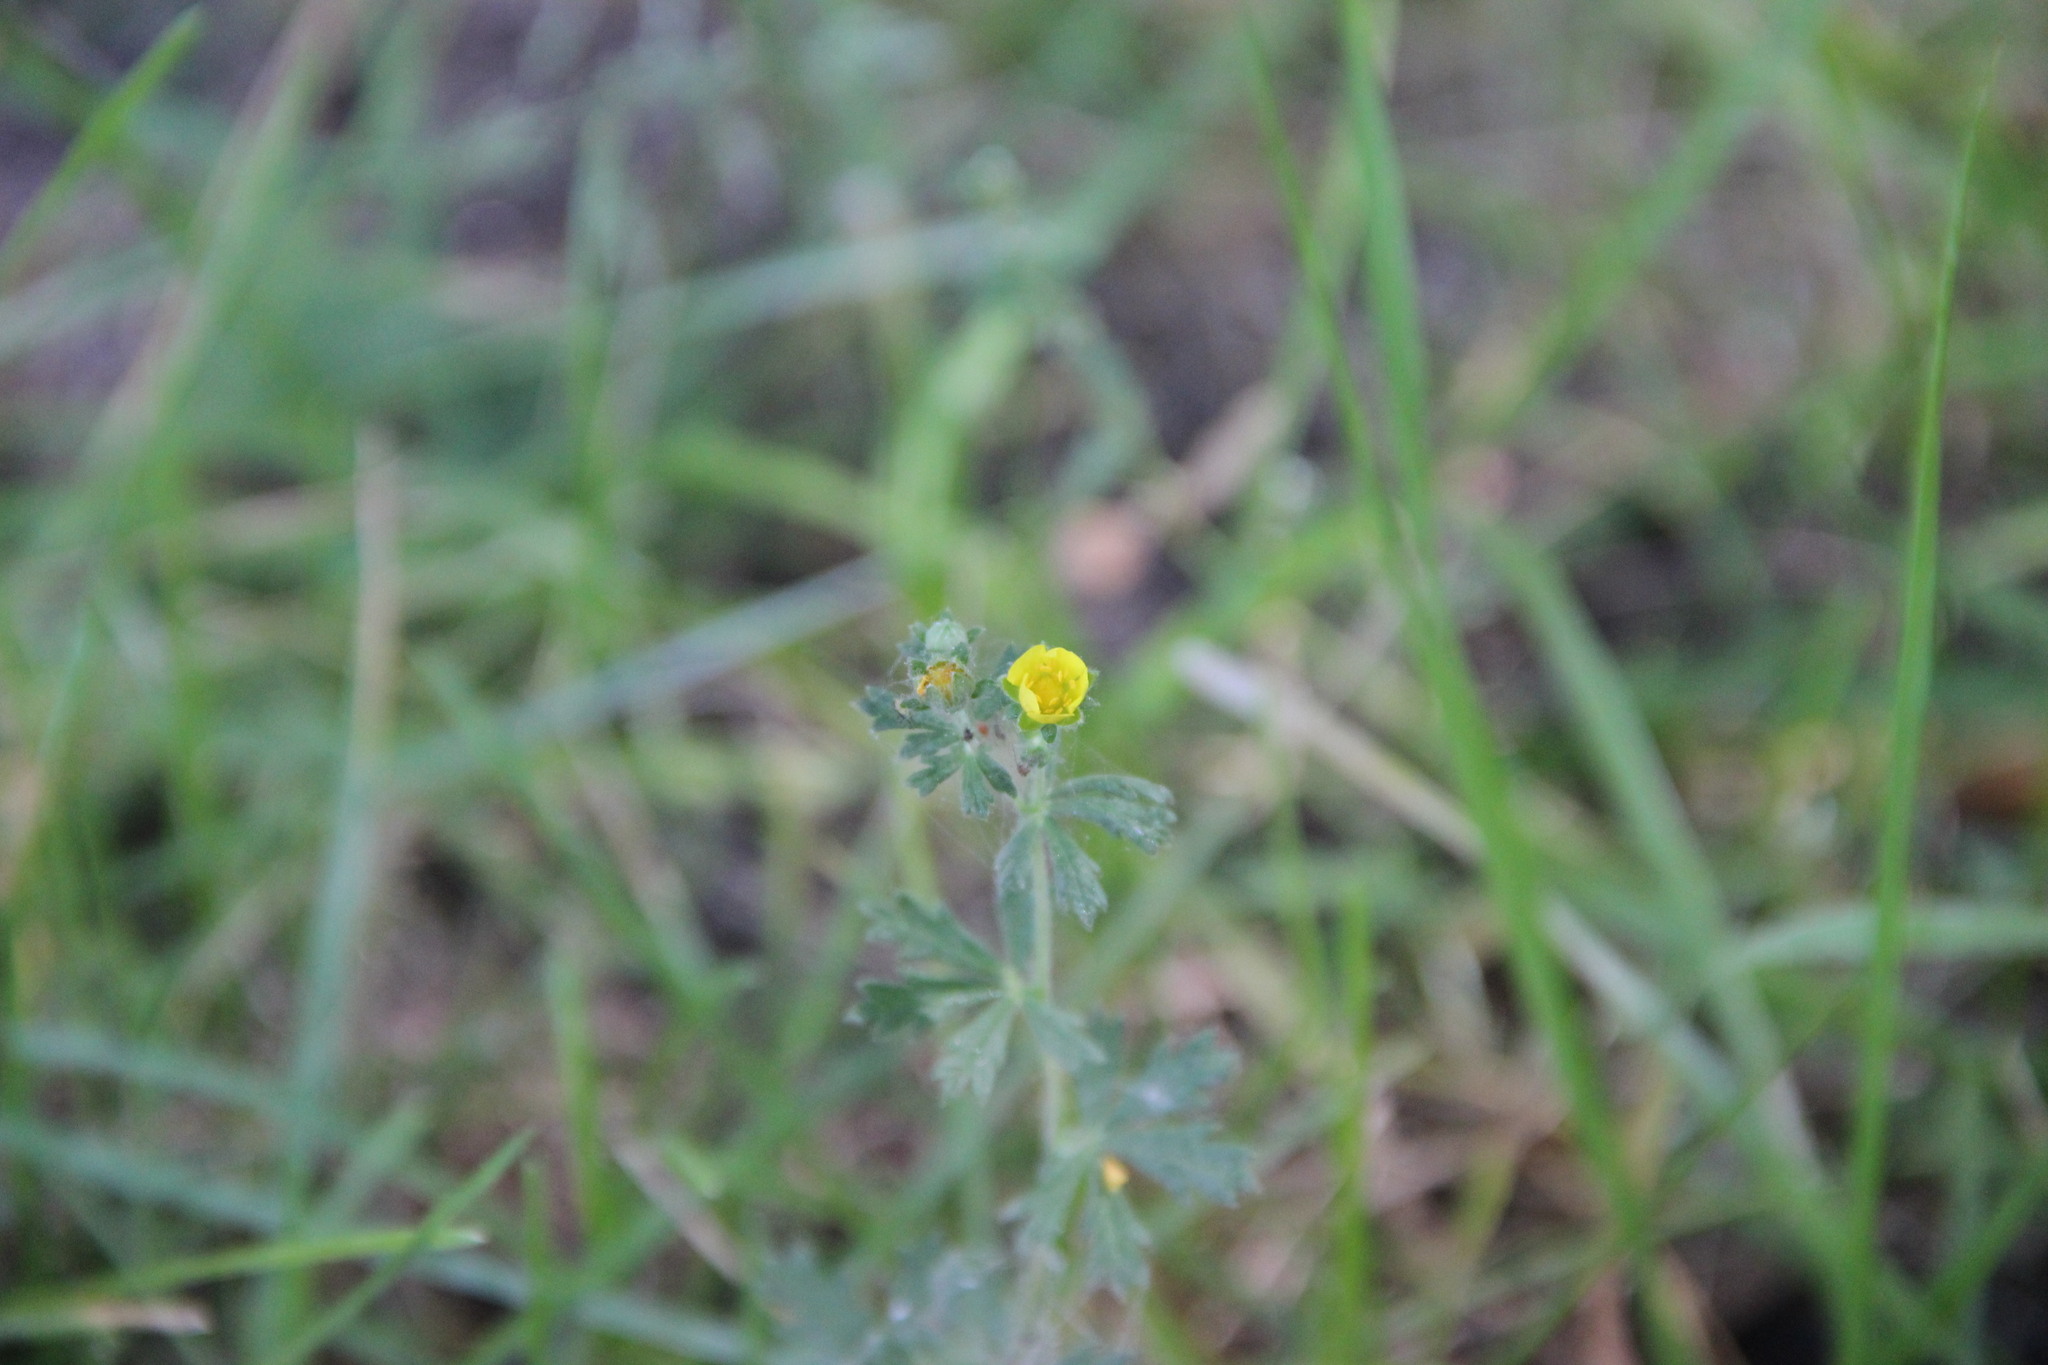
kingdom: Plantae
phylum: Tracheophyta
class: Magnoliopsida
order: Rosales
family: Rosaceae
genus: Potentilla
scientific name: Potentilla argentea
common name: Hoary cinquefoil
